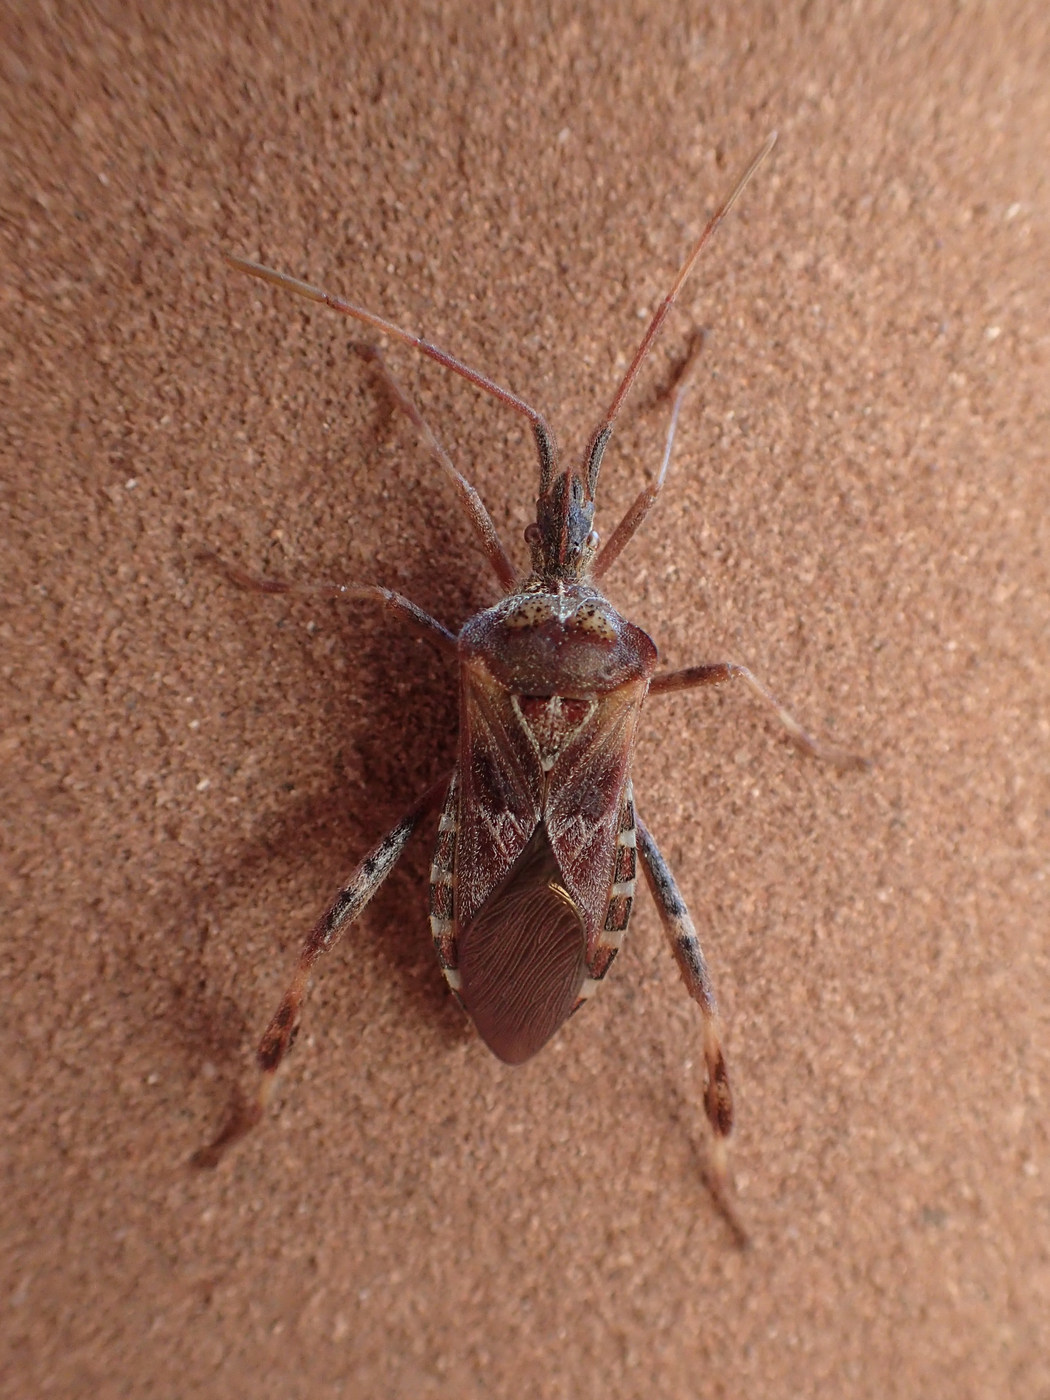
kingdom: Animalia
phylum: Arthropoda
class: Insecta
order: Hemiptera
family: Coreidae
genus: Leptoglossus
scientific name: Leptoglossus occidentalis
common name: Western conifer-seed bug
